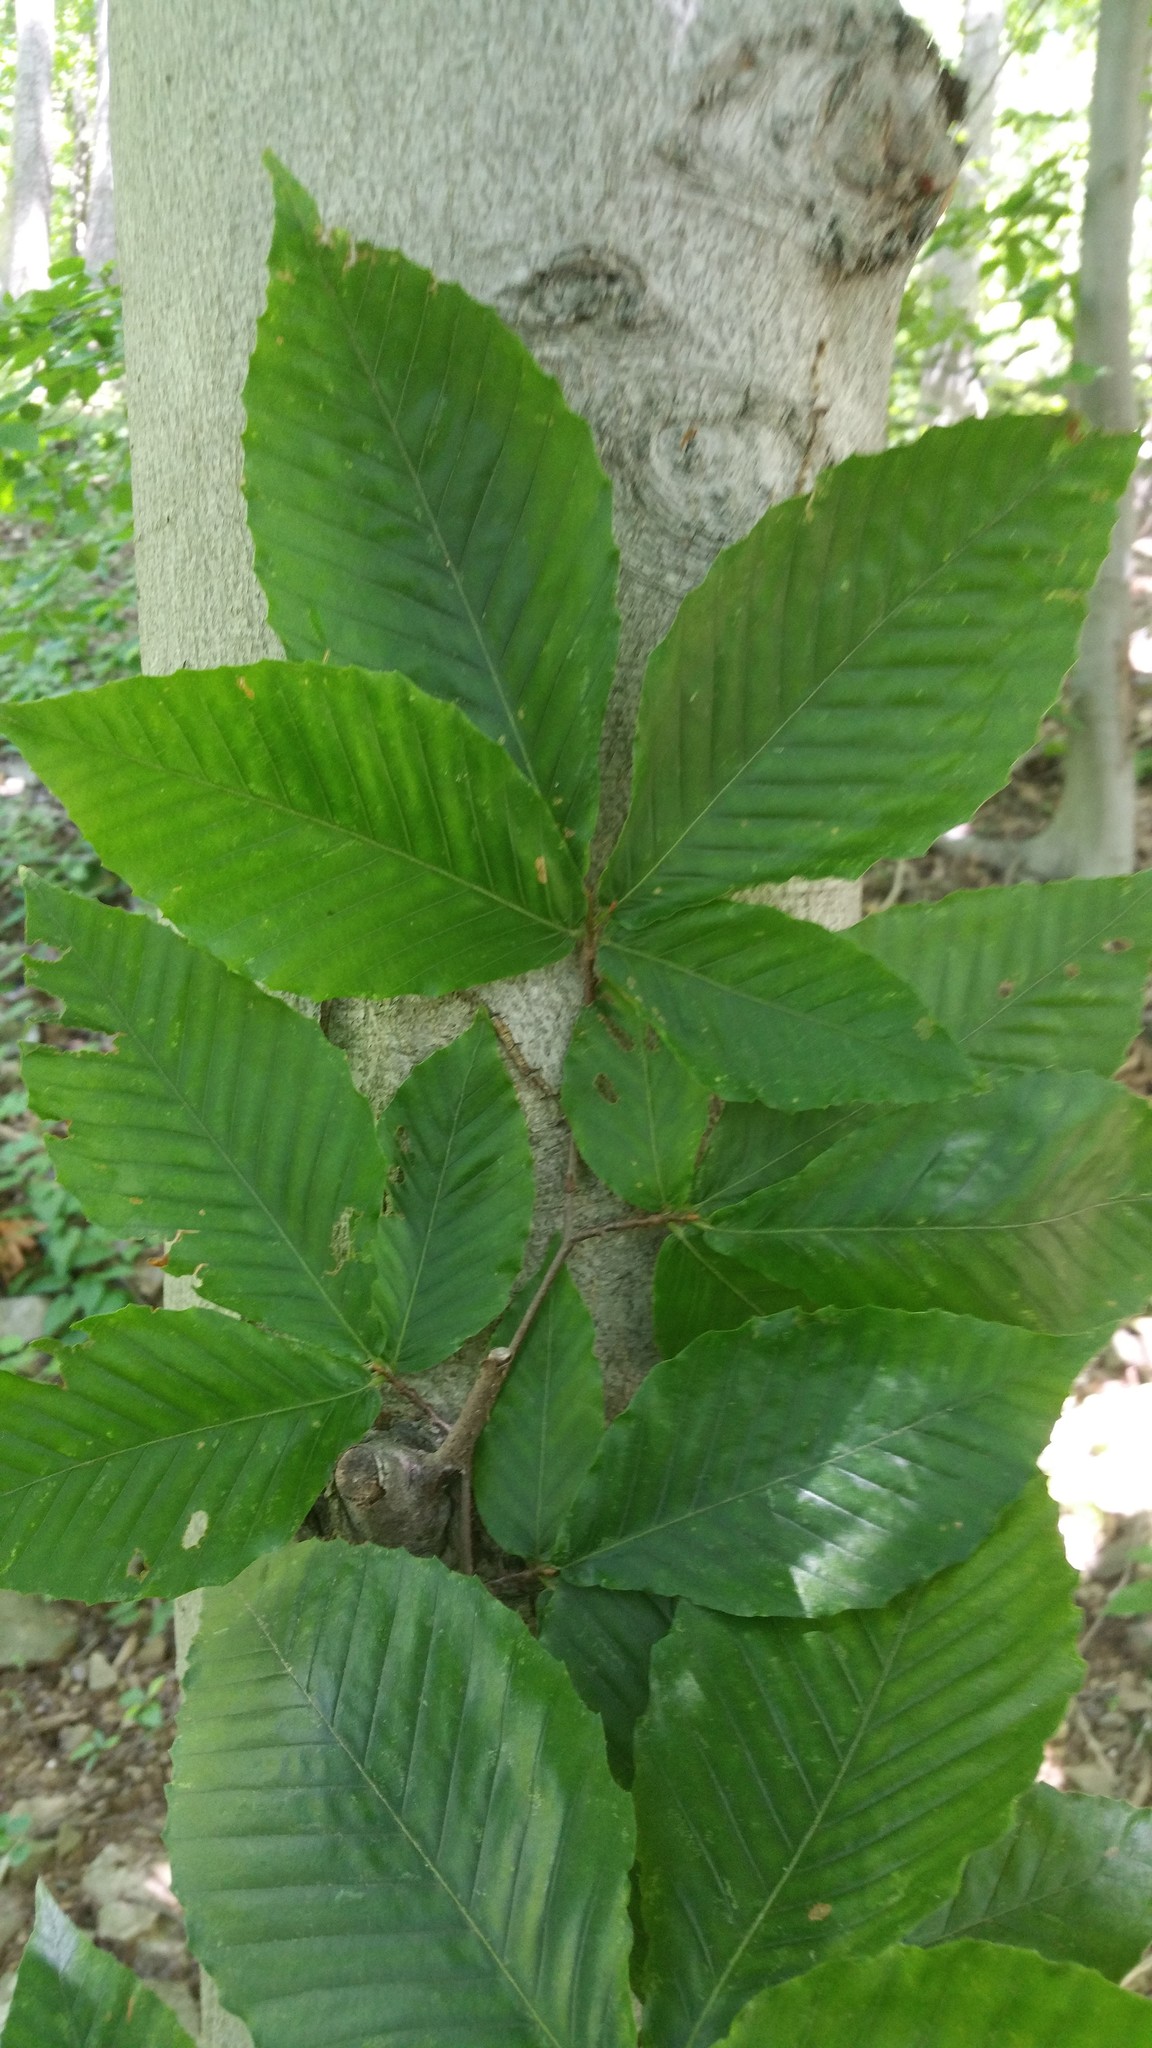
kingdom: Plantae
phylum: Tracheophyta
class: Magnoliopsida
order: Fagales
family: Fagaceae
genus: Fagus
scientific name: Fagus grandifolia
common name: American beech
